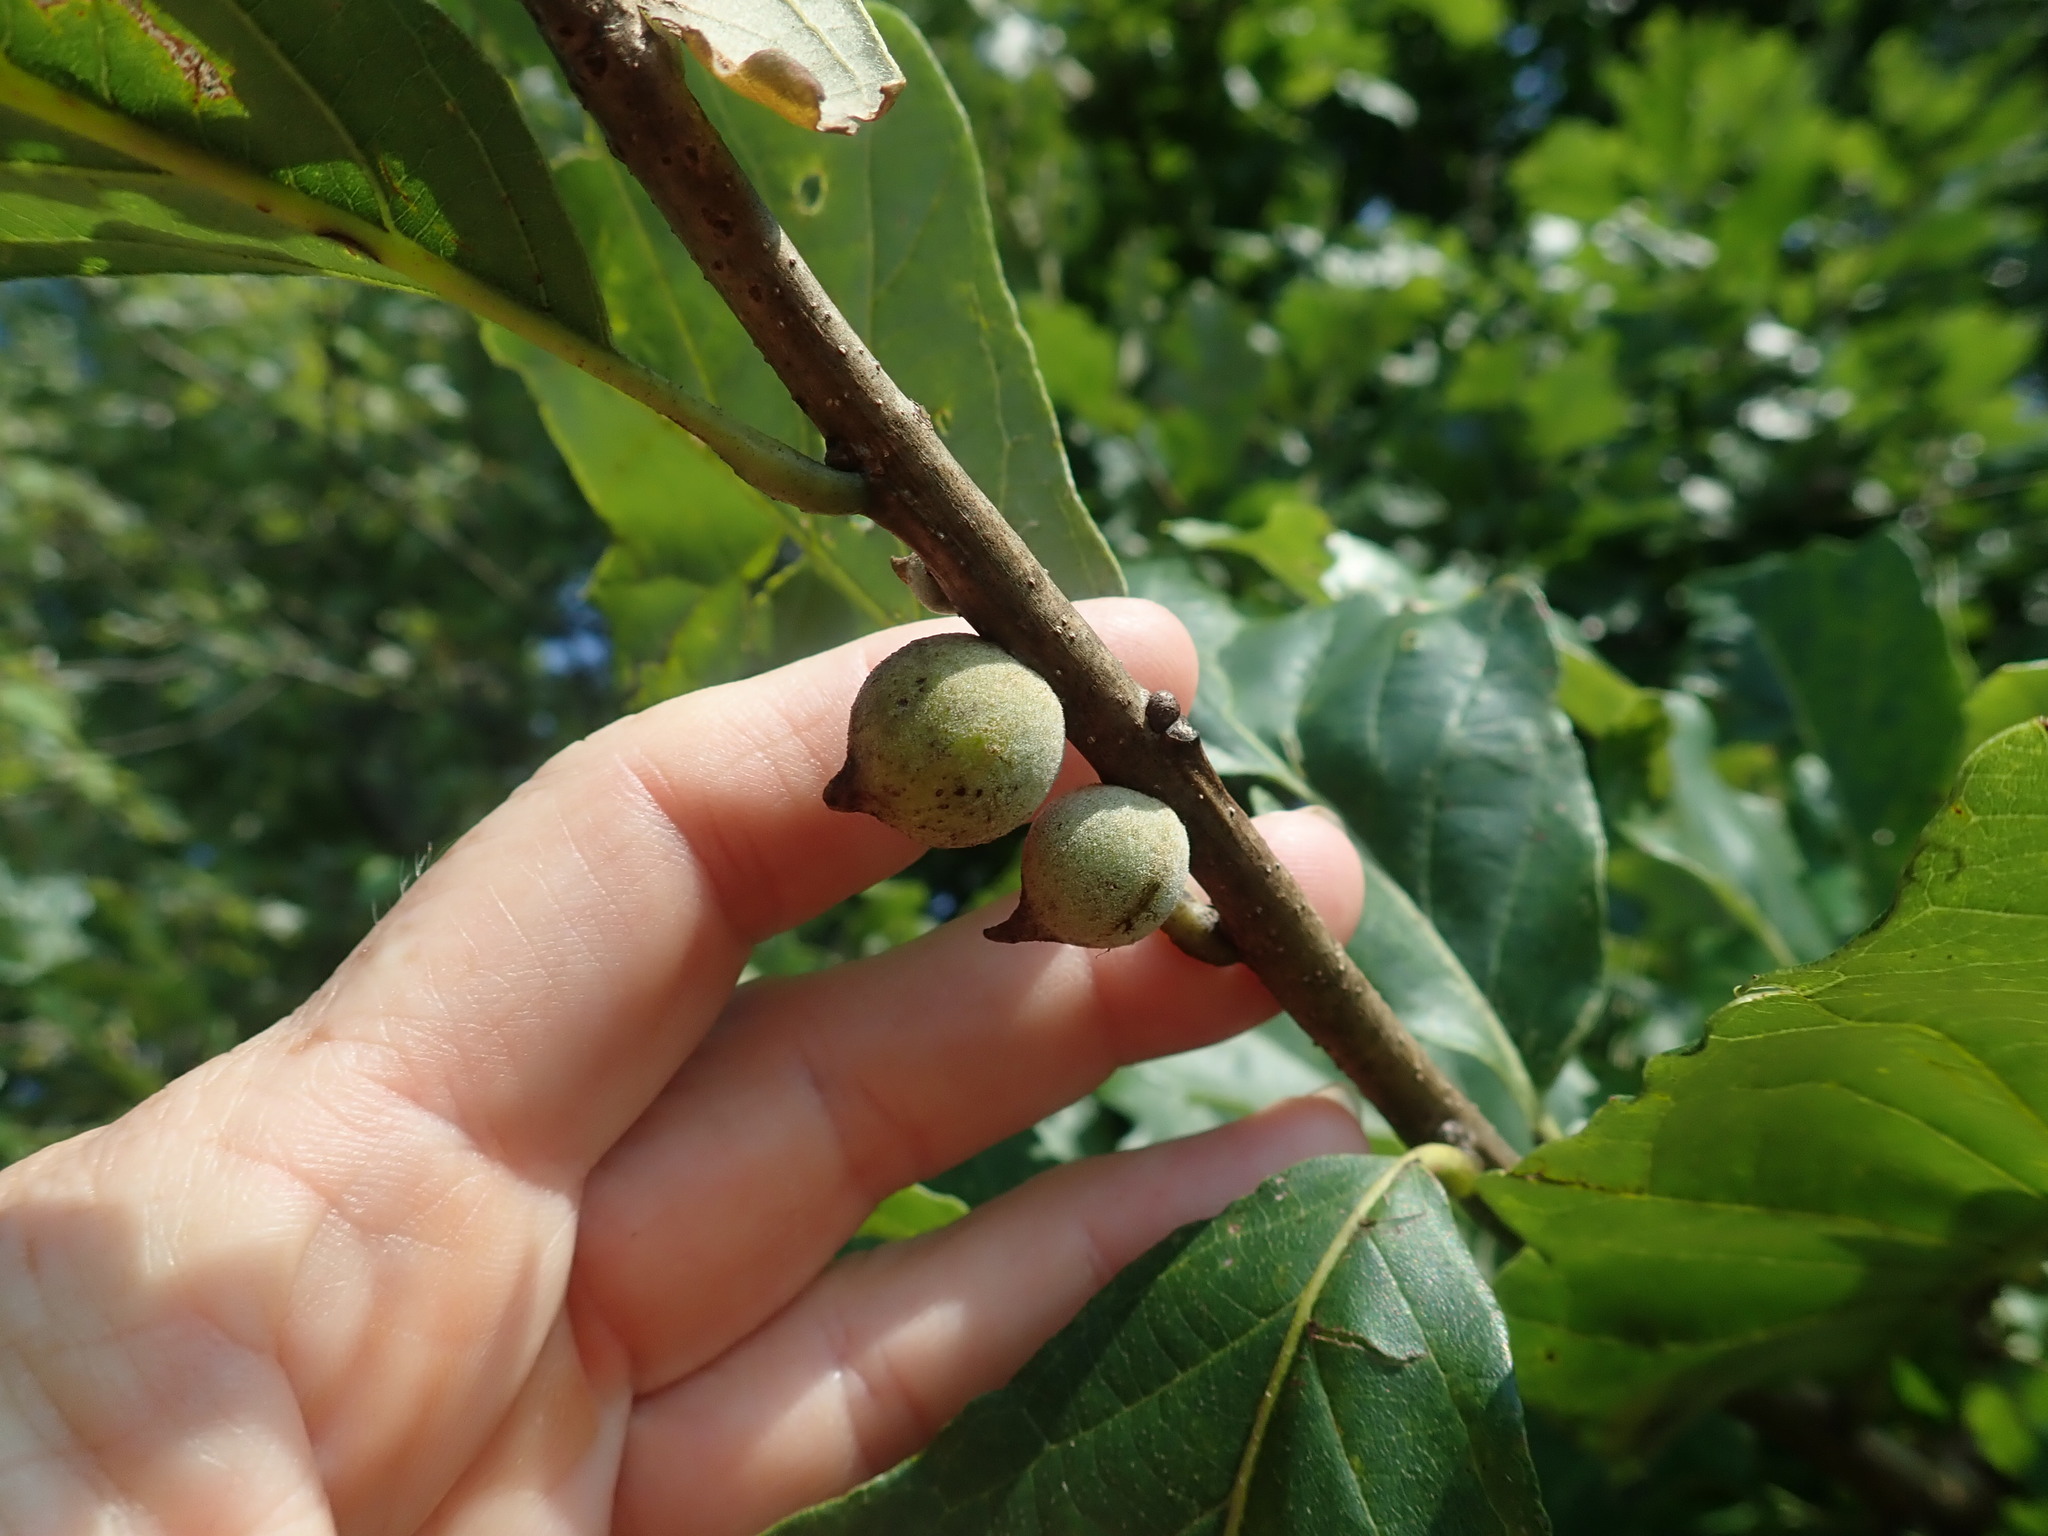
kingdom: Animalia
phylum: Arthropoda
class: Insecta
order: Hymenoptera
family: Cynipidae
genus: Disholcaspis
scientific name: Disholcaspis
